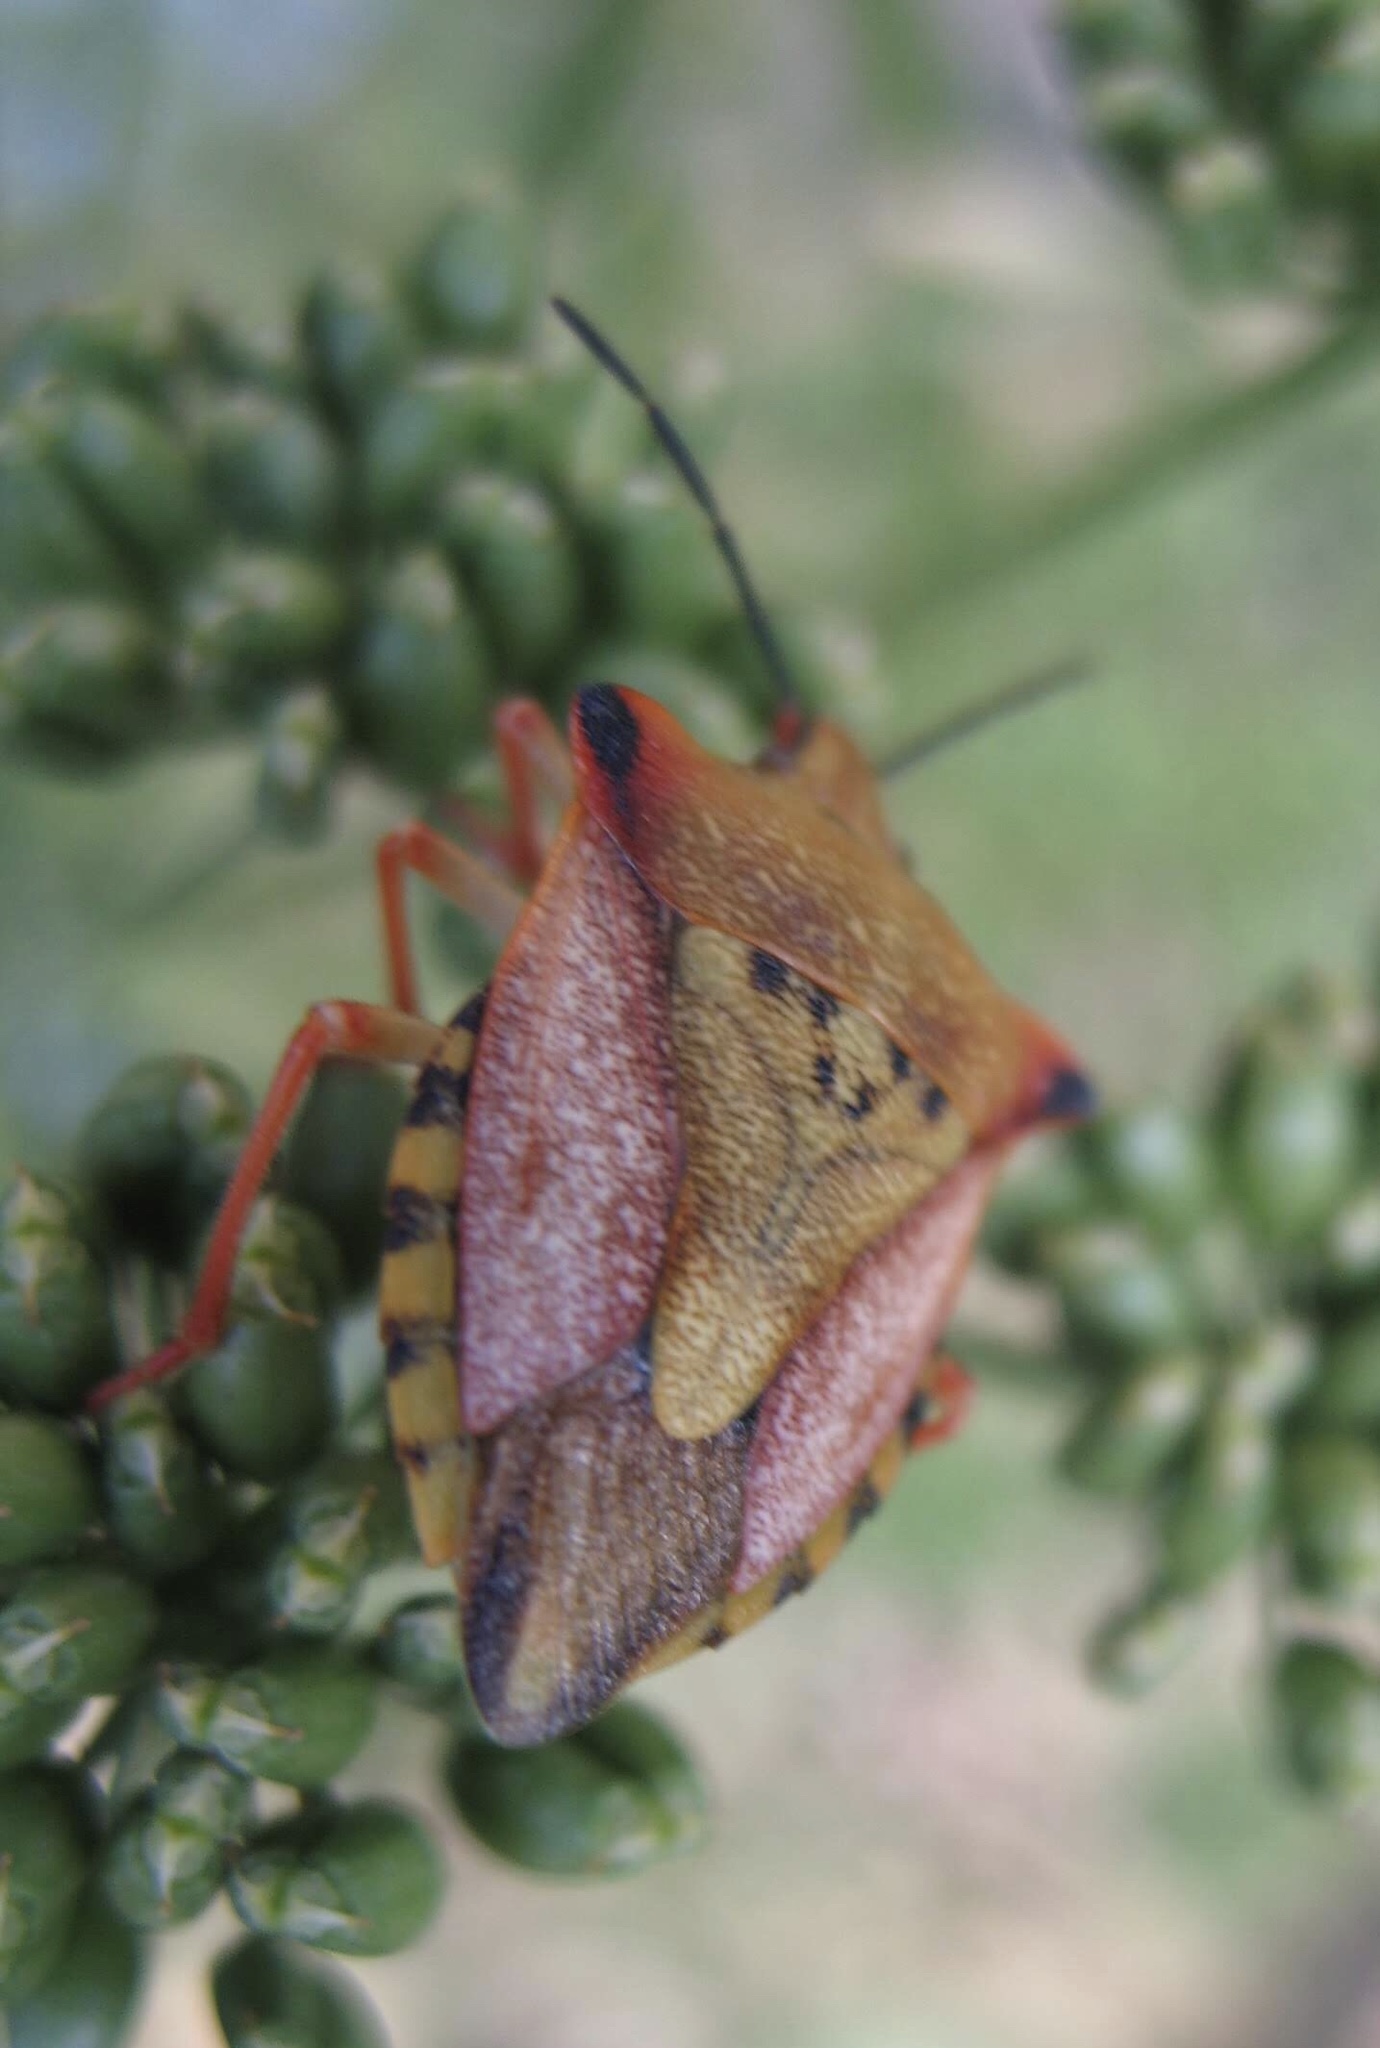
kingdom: Animalia
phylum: Arthropoda
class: Insecta
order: Hemiptera
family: Pentatomidae
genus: Carpocoris
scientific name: Carpocoris mediterraneus
